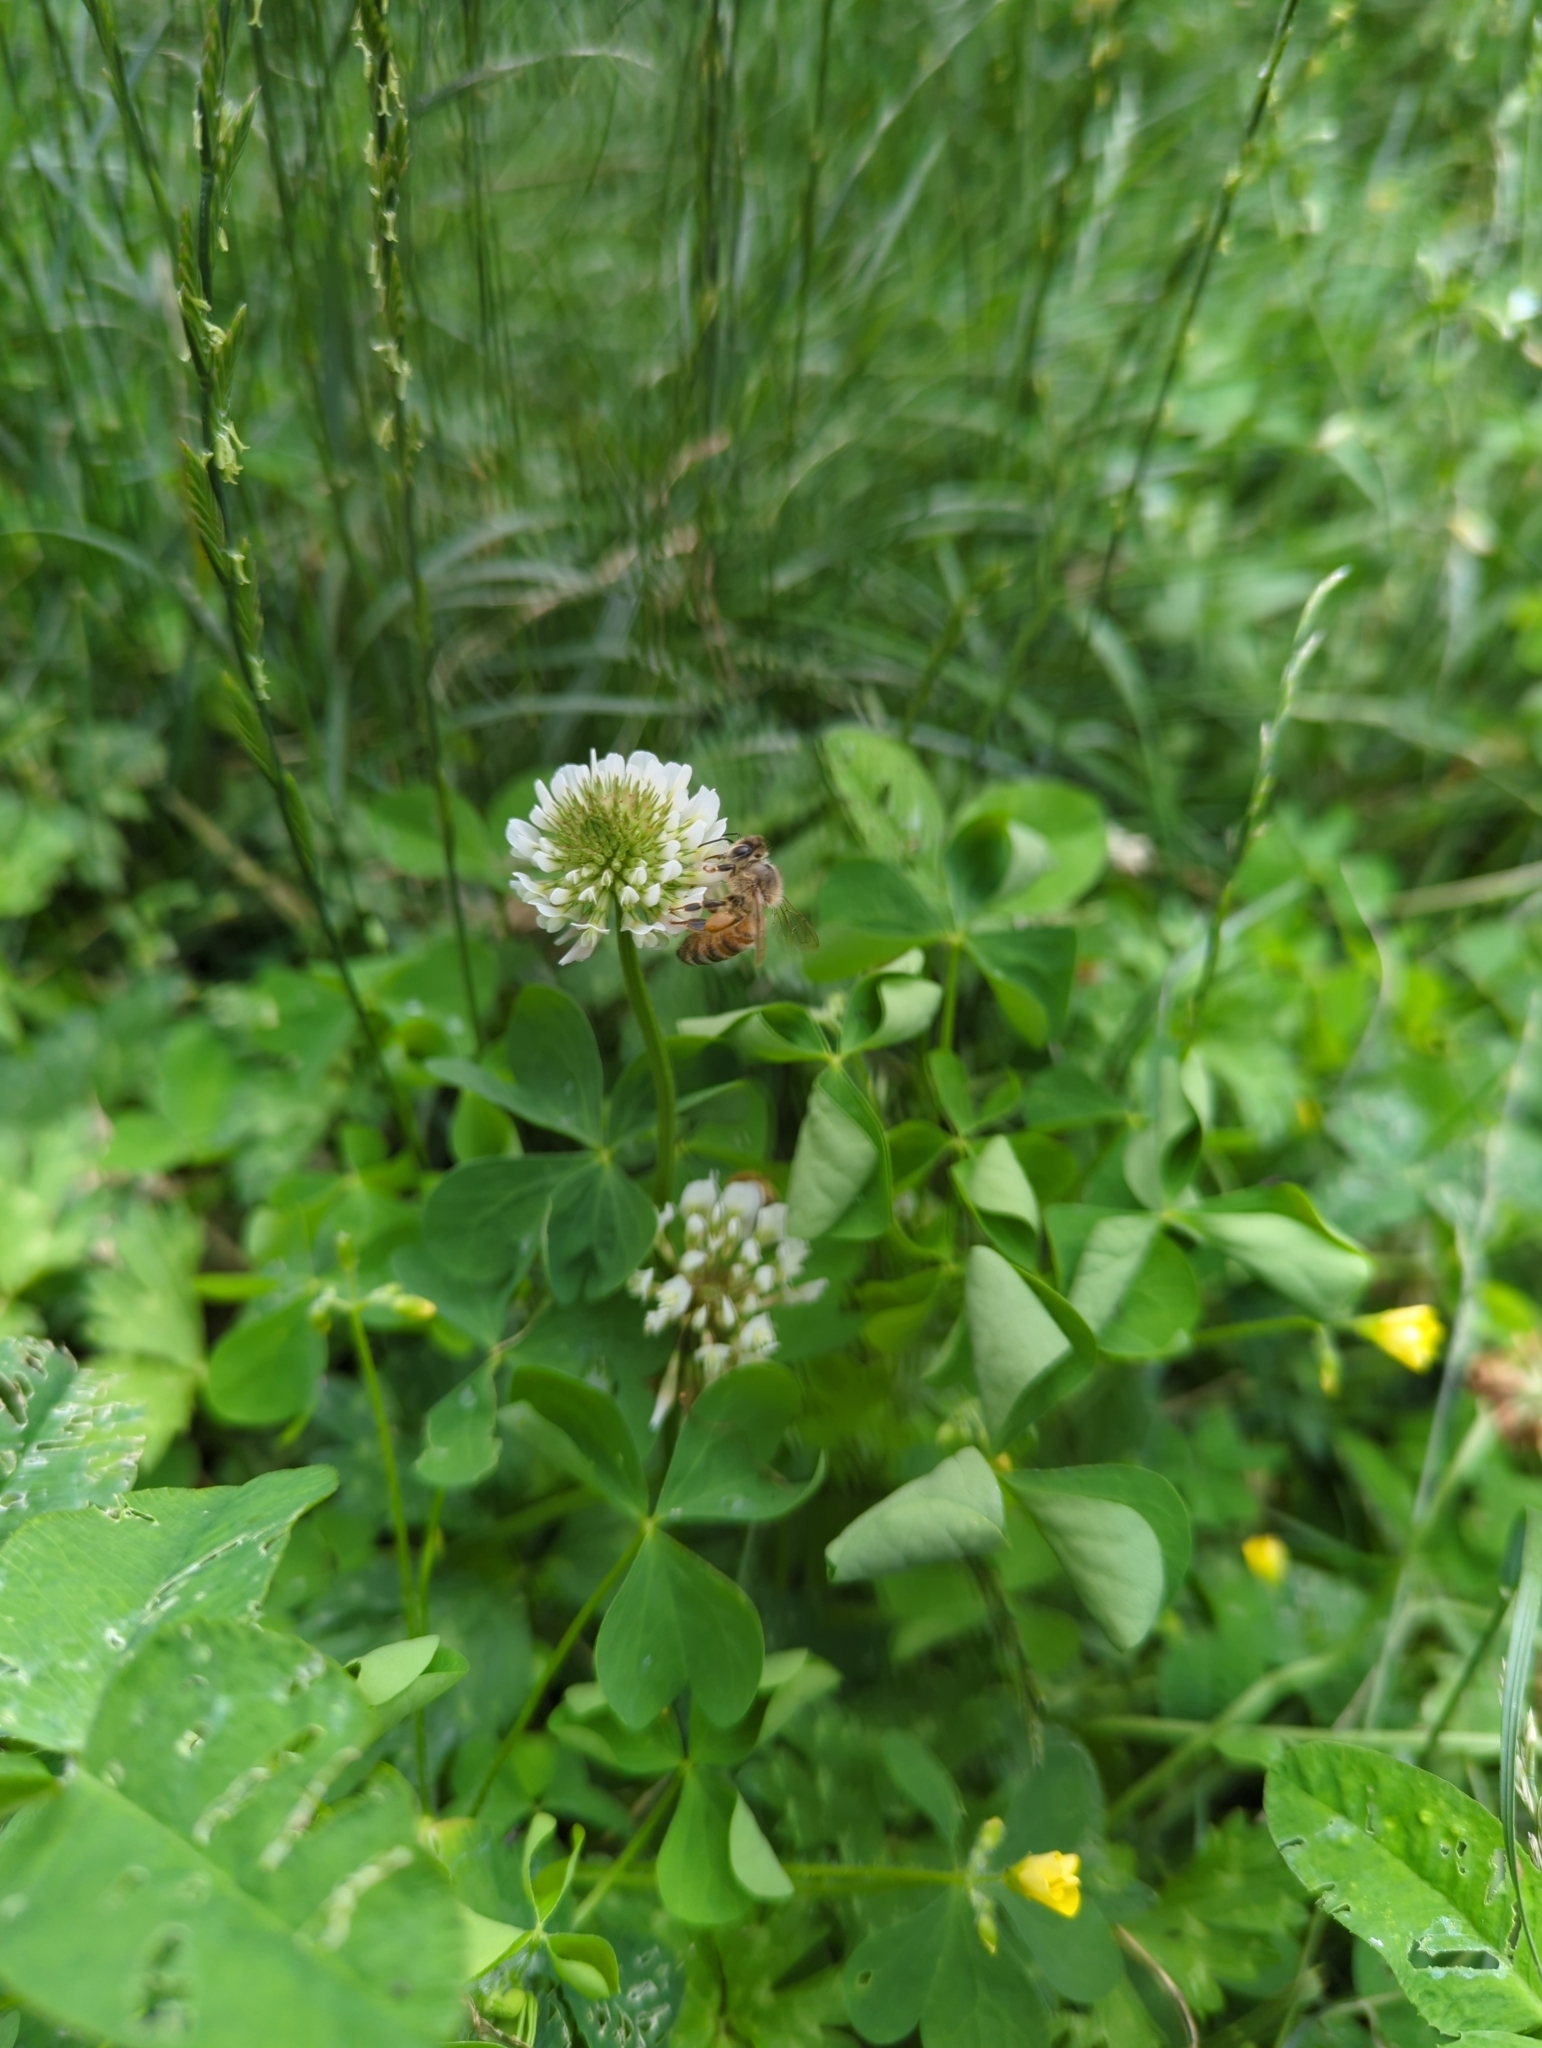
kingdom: Animalia
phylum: Arthropoda
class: Insecta
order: Hymenoptera
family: Apidae
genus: Apis
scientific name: Apis mellifera
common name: Honey bee
